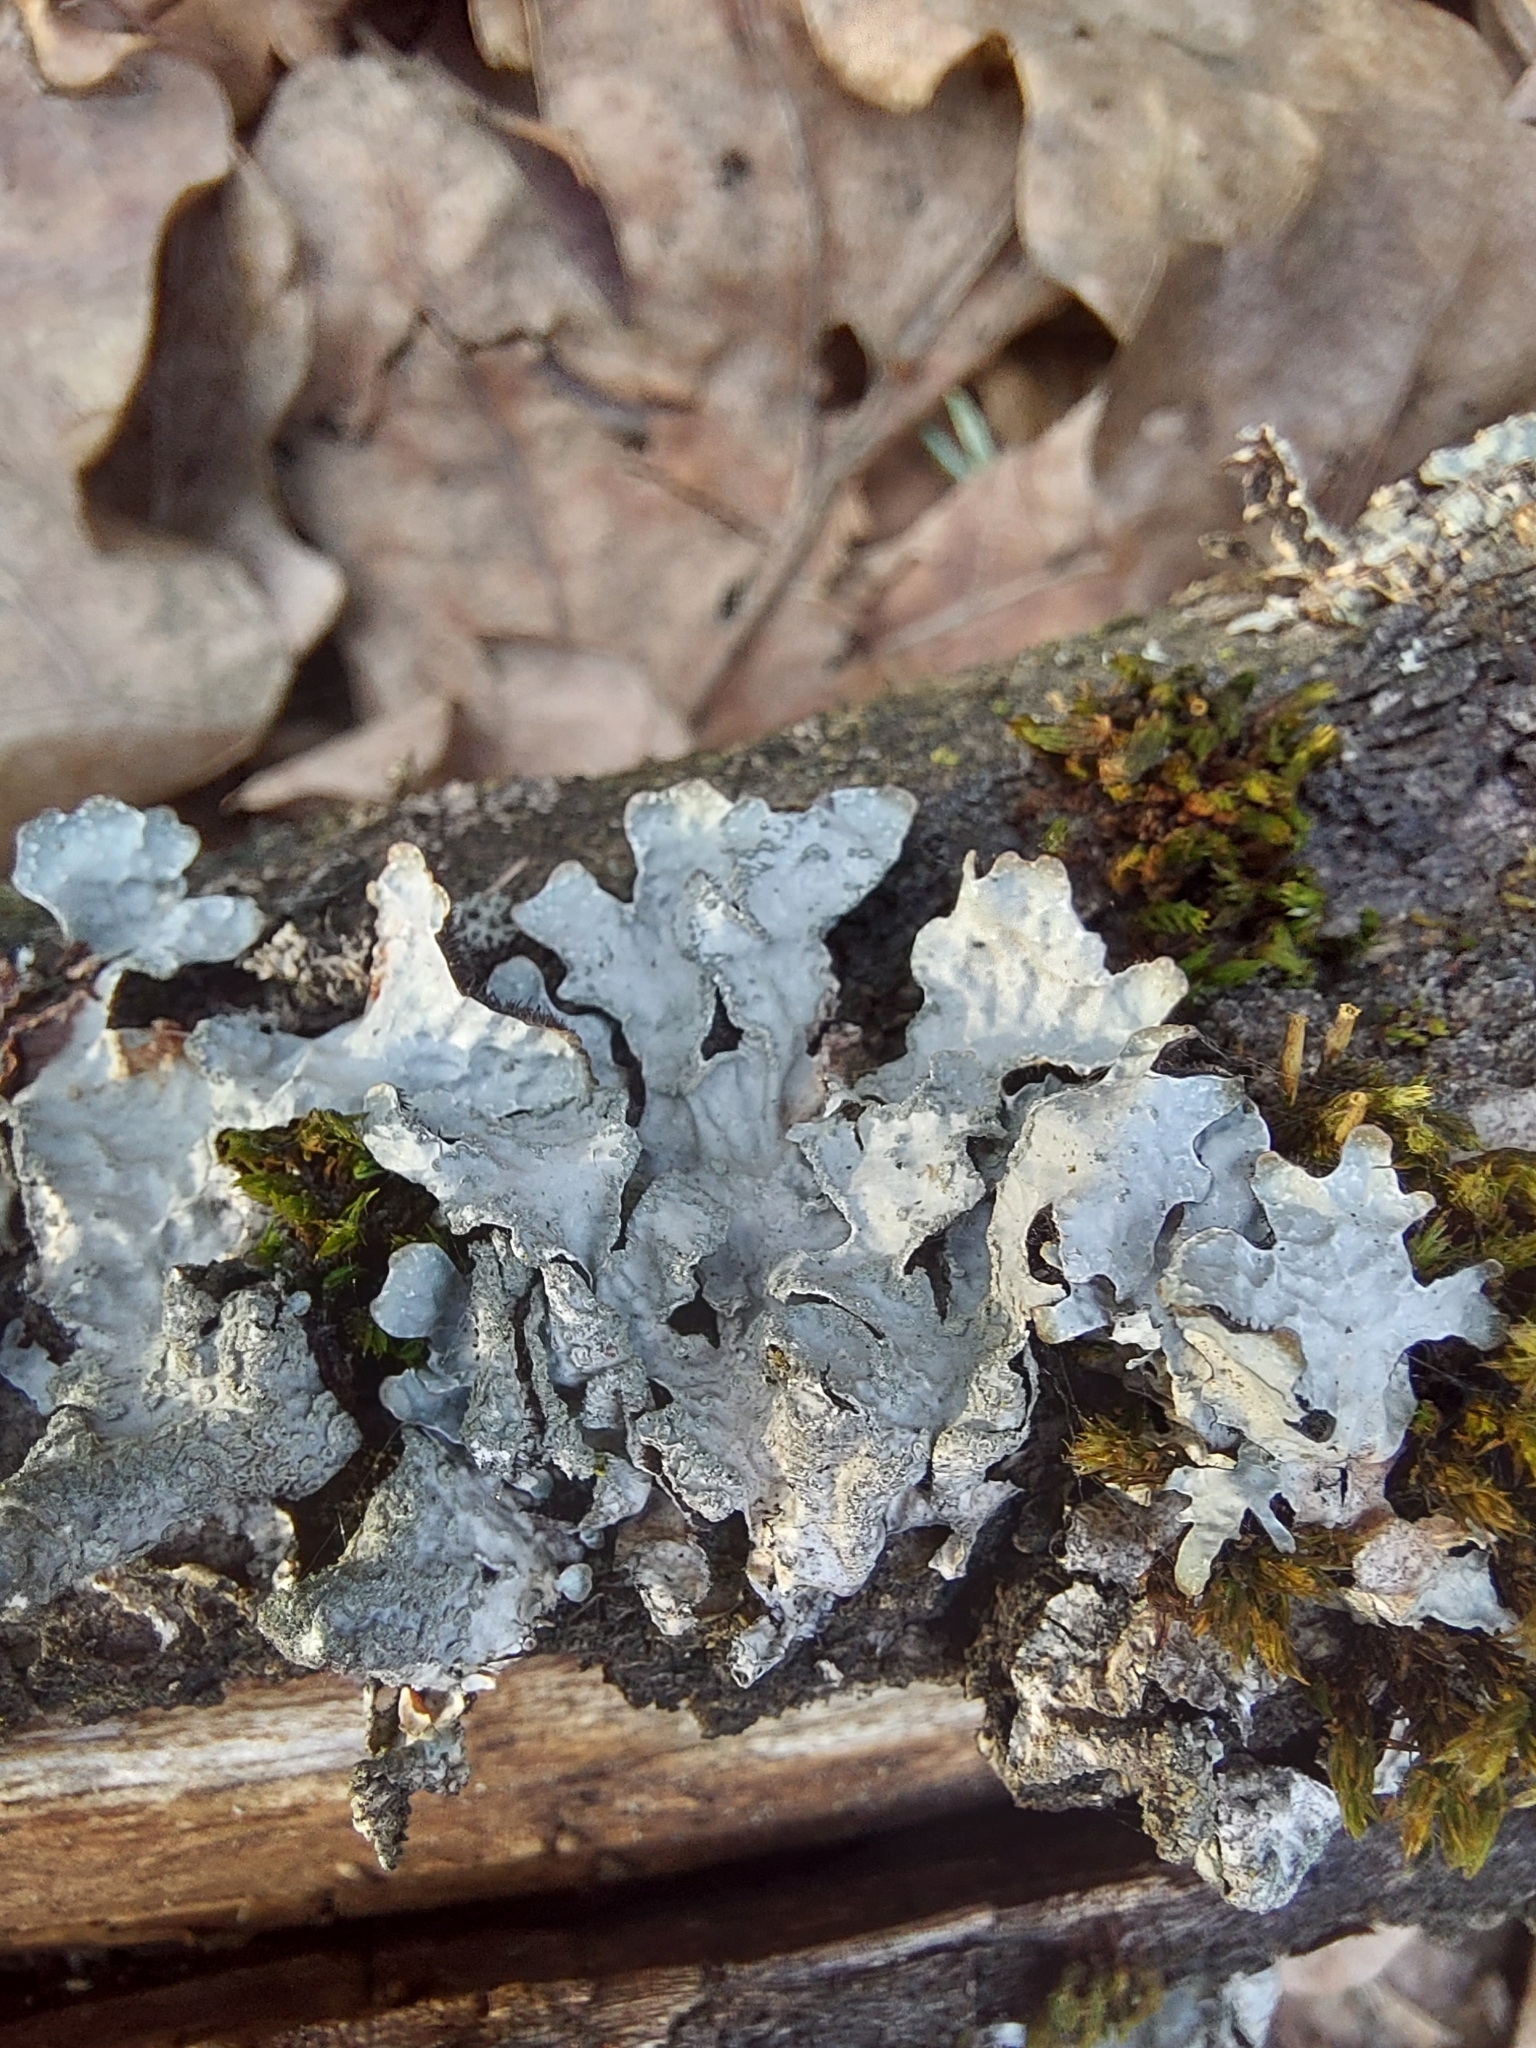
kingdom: Fungi
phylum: Ascomycota
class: Lecanoromycetes
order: Lecanorales
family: Parmeliaceae
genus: Parmelia
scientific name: Parmelia sulcata
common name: Netted shield lichen
